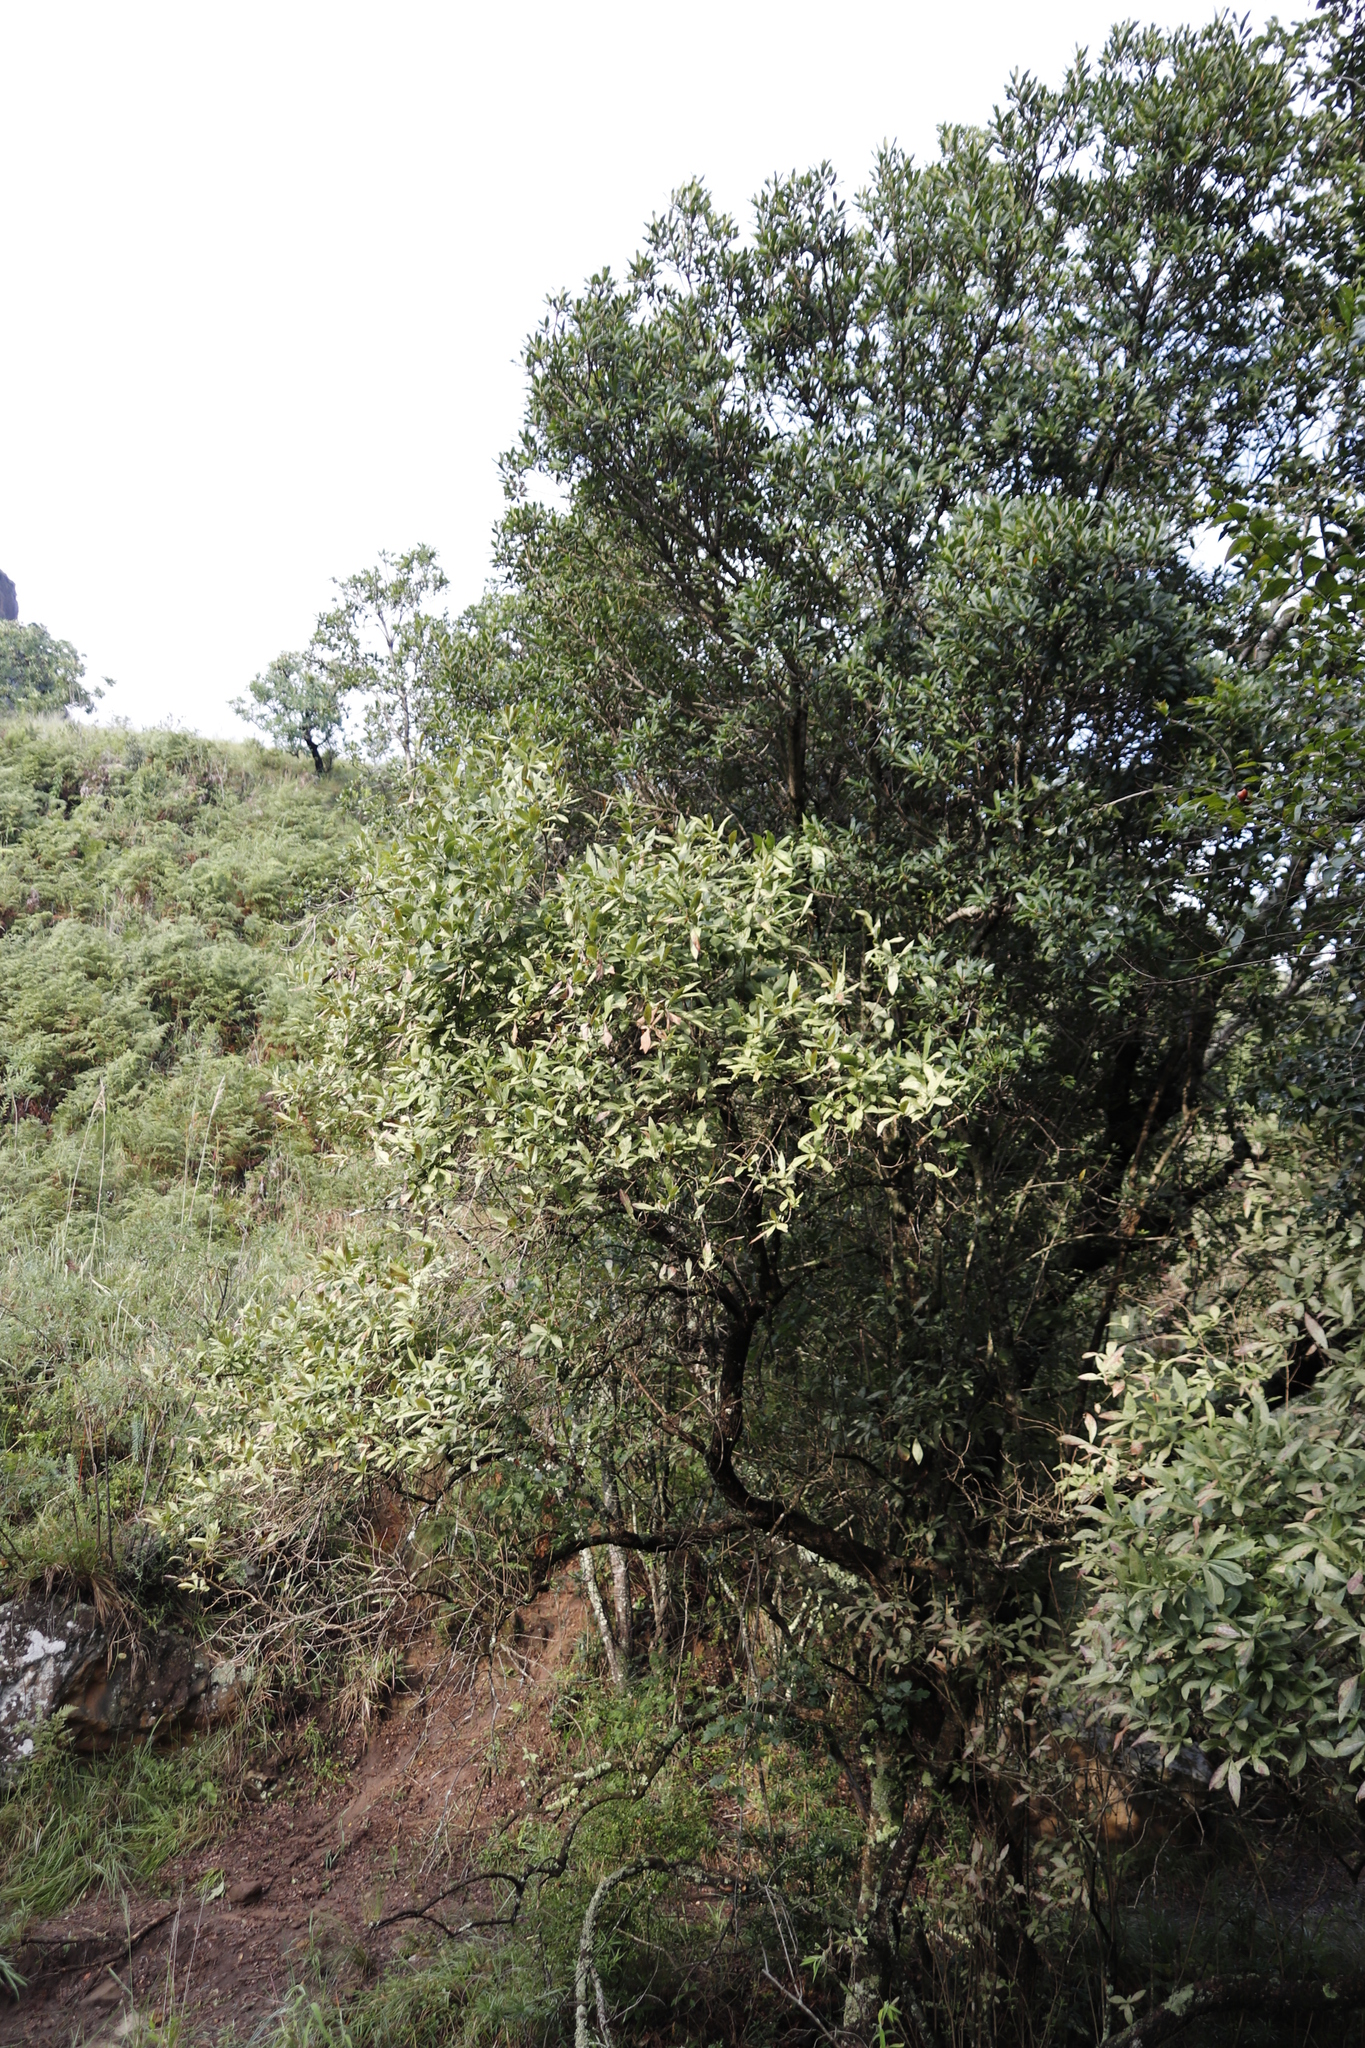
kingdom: Plantae
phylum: Tracheophyta
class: Magnoliopsida
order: Lamiales
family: Stilbaceae
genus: Bowkeria
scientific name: Bowkeria verticillata
